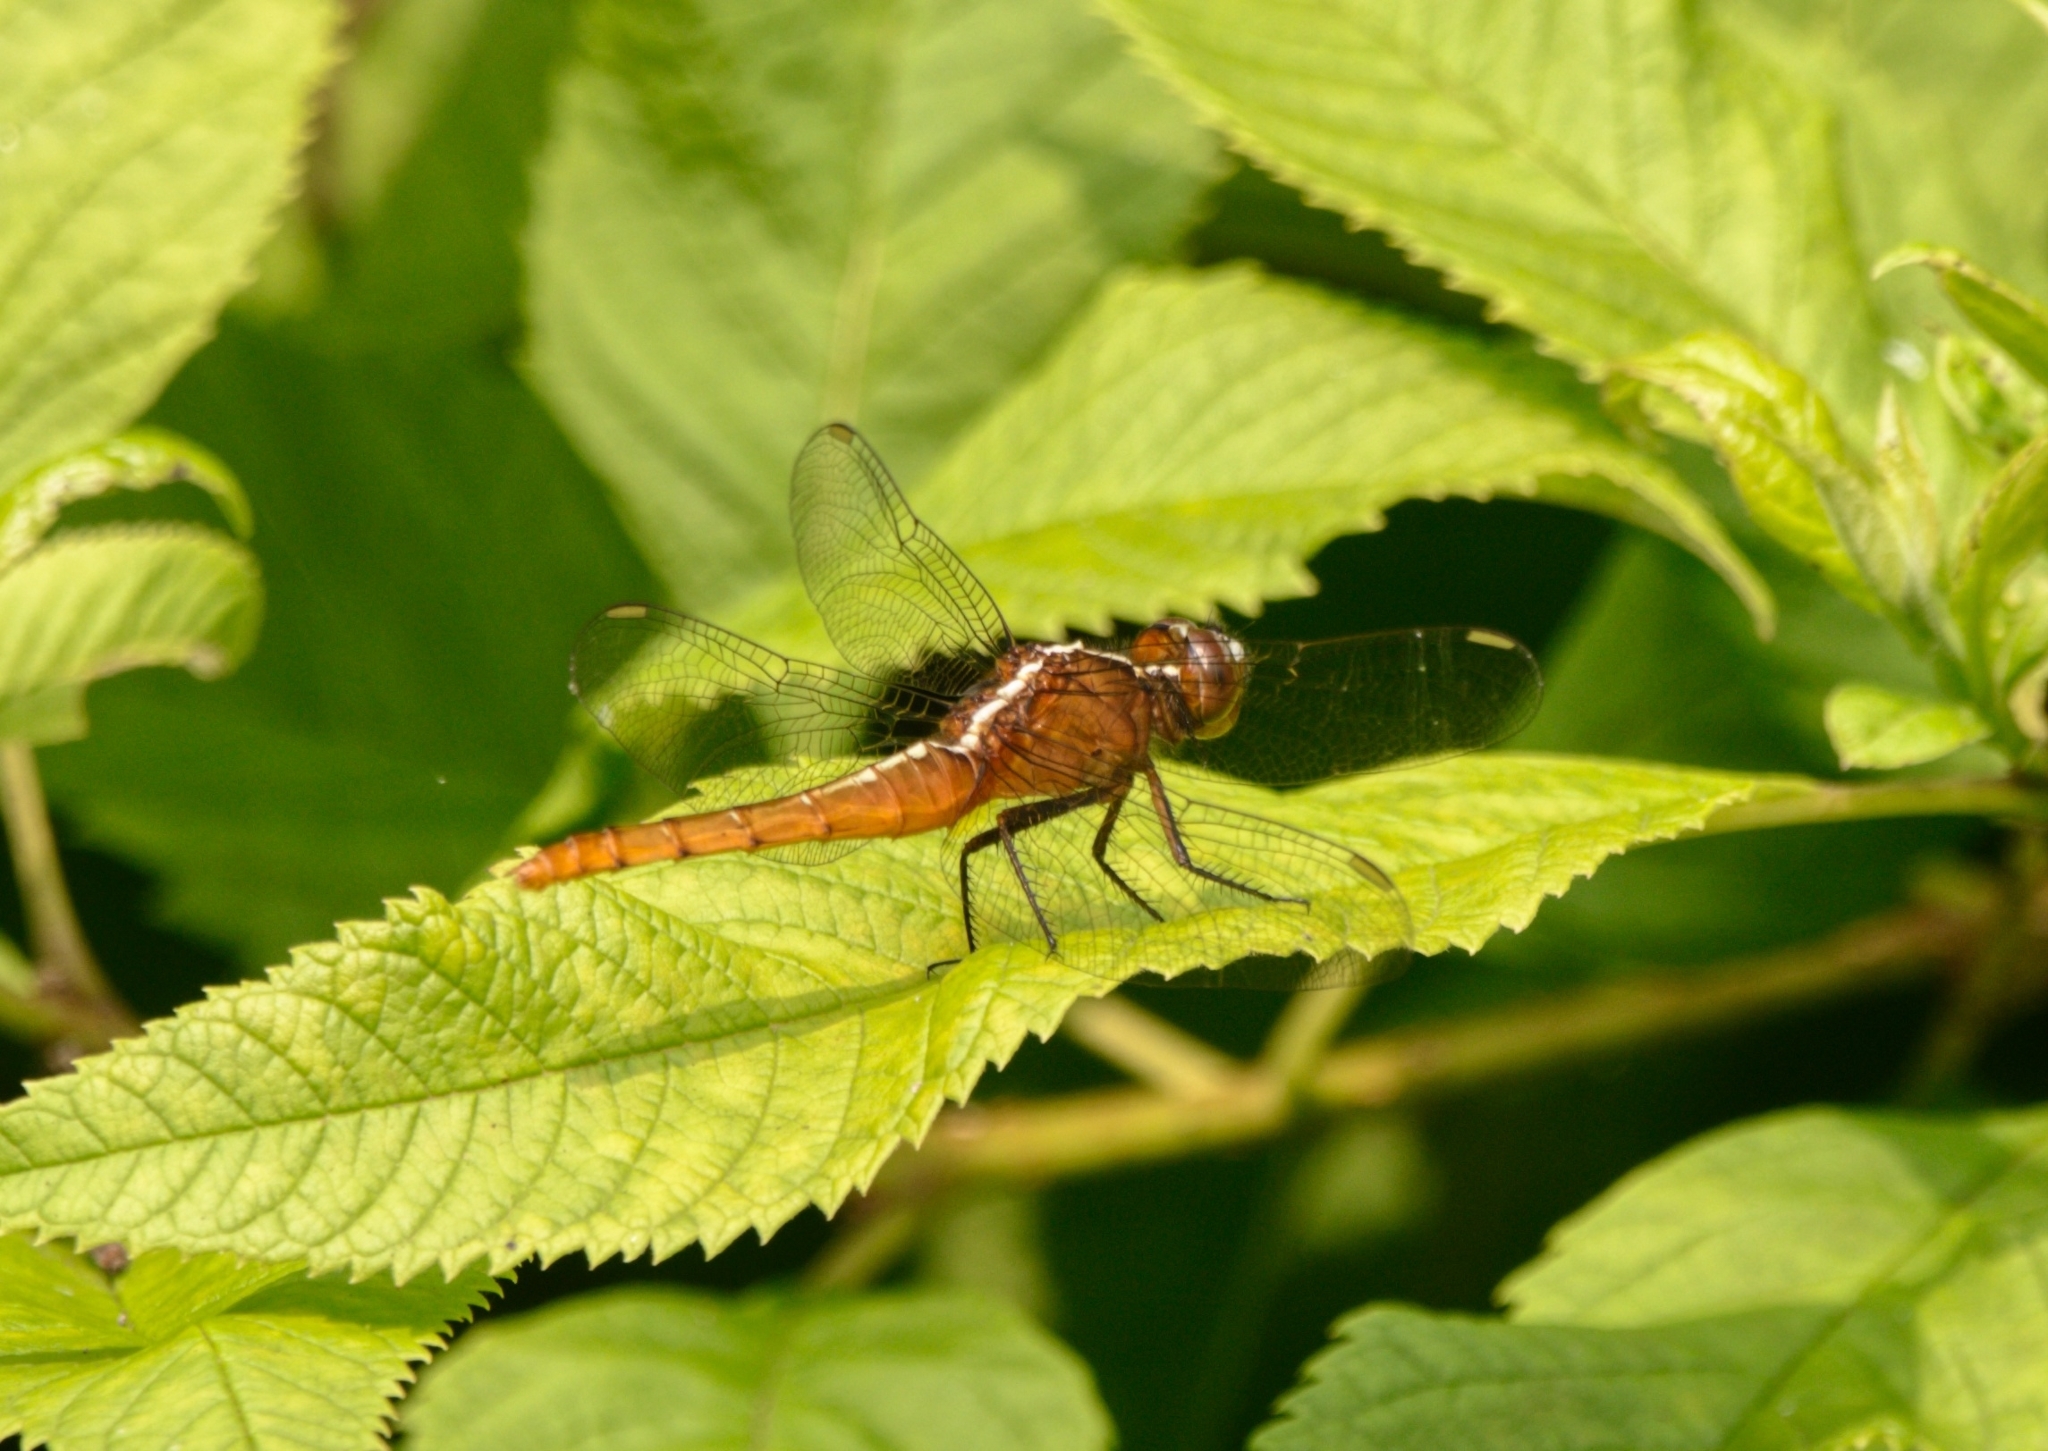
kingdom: Animalia
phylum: Arthropoda
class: Insecta
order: Odonata
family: Libellulidae
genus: Rhodothemis
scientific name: Rhodothemis rufa
